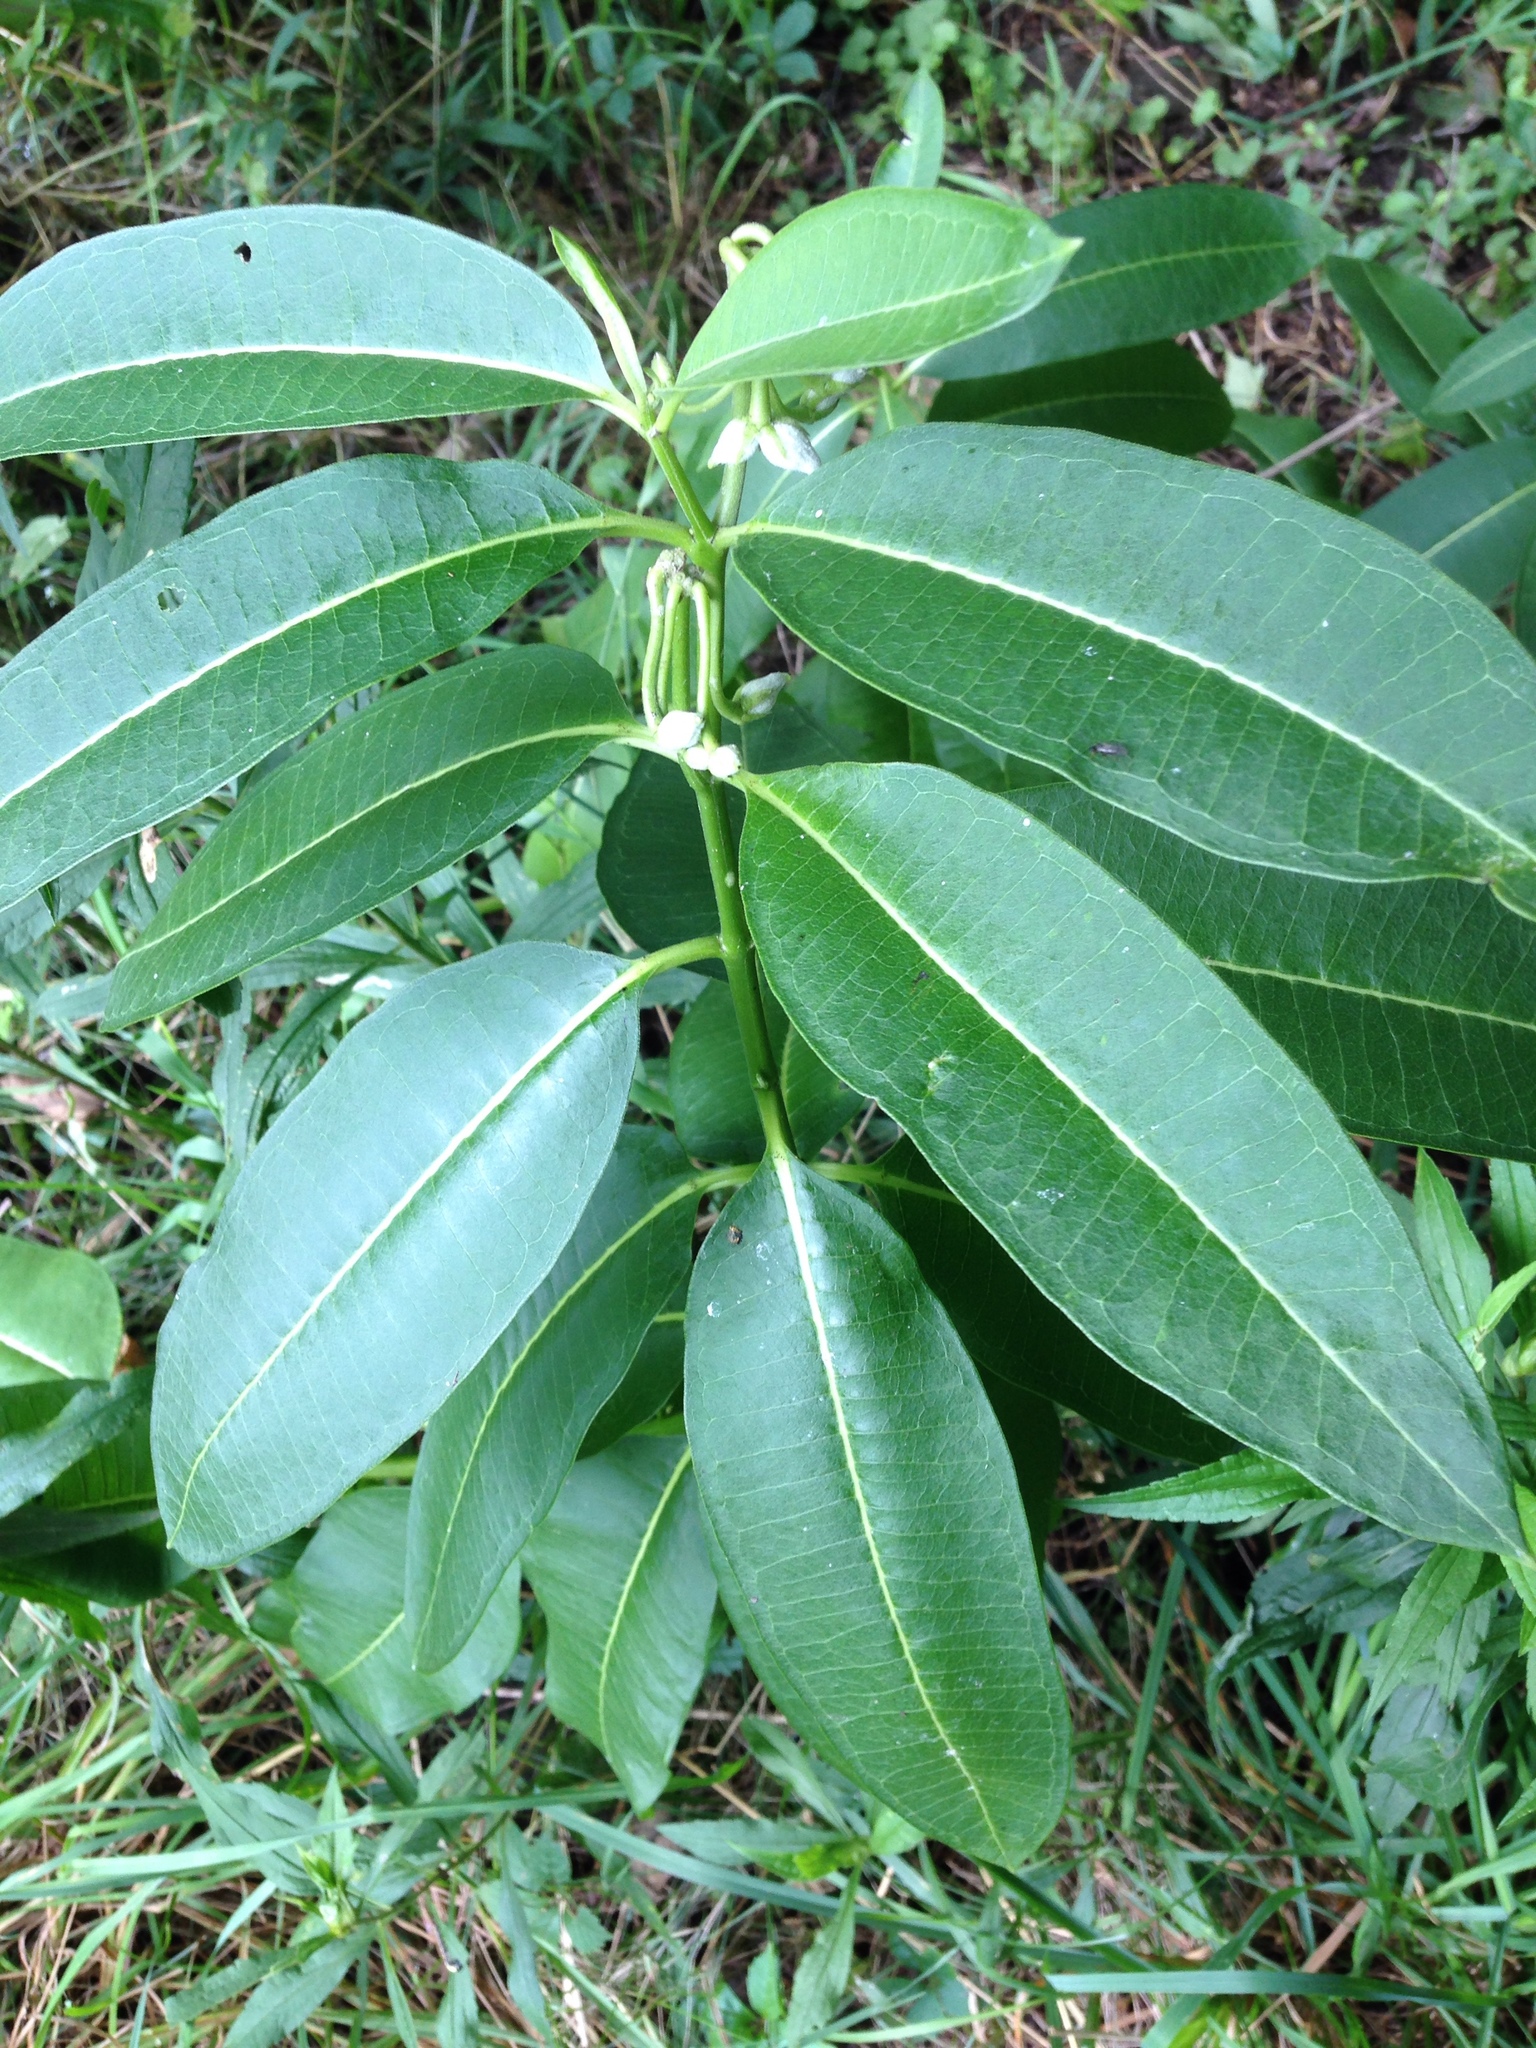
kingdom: Plantae
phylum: Tracheophyta
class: Magnoliopsida
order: Gentianales
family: Apocynaceae
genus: Asclepias
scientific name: Asclepias syriaca
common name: Common milkweed
